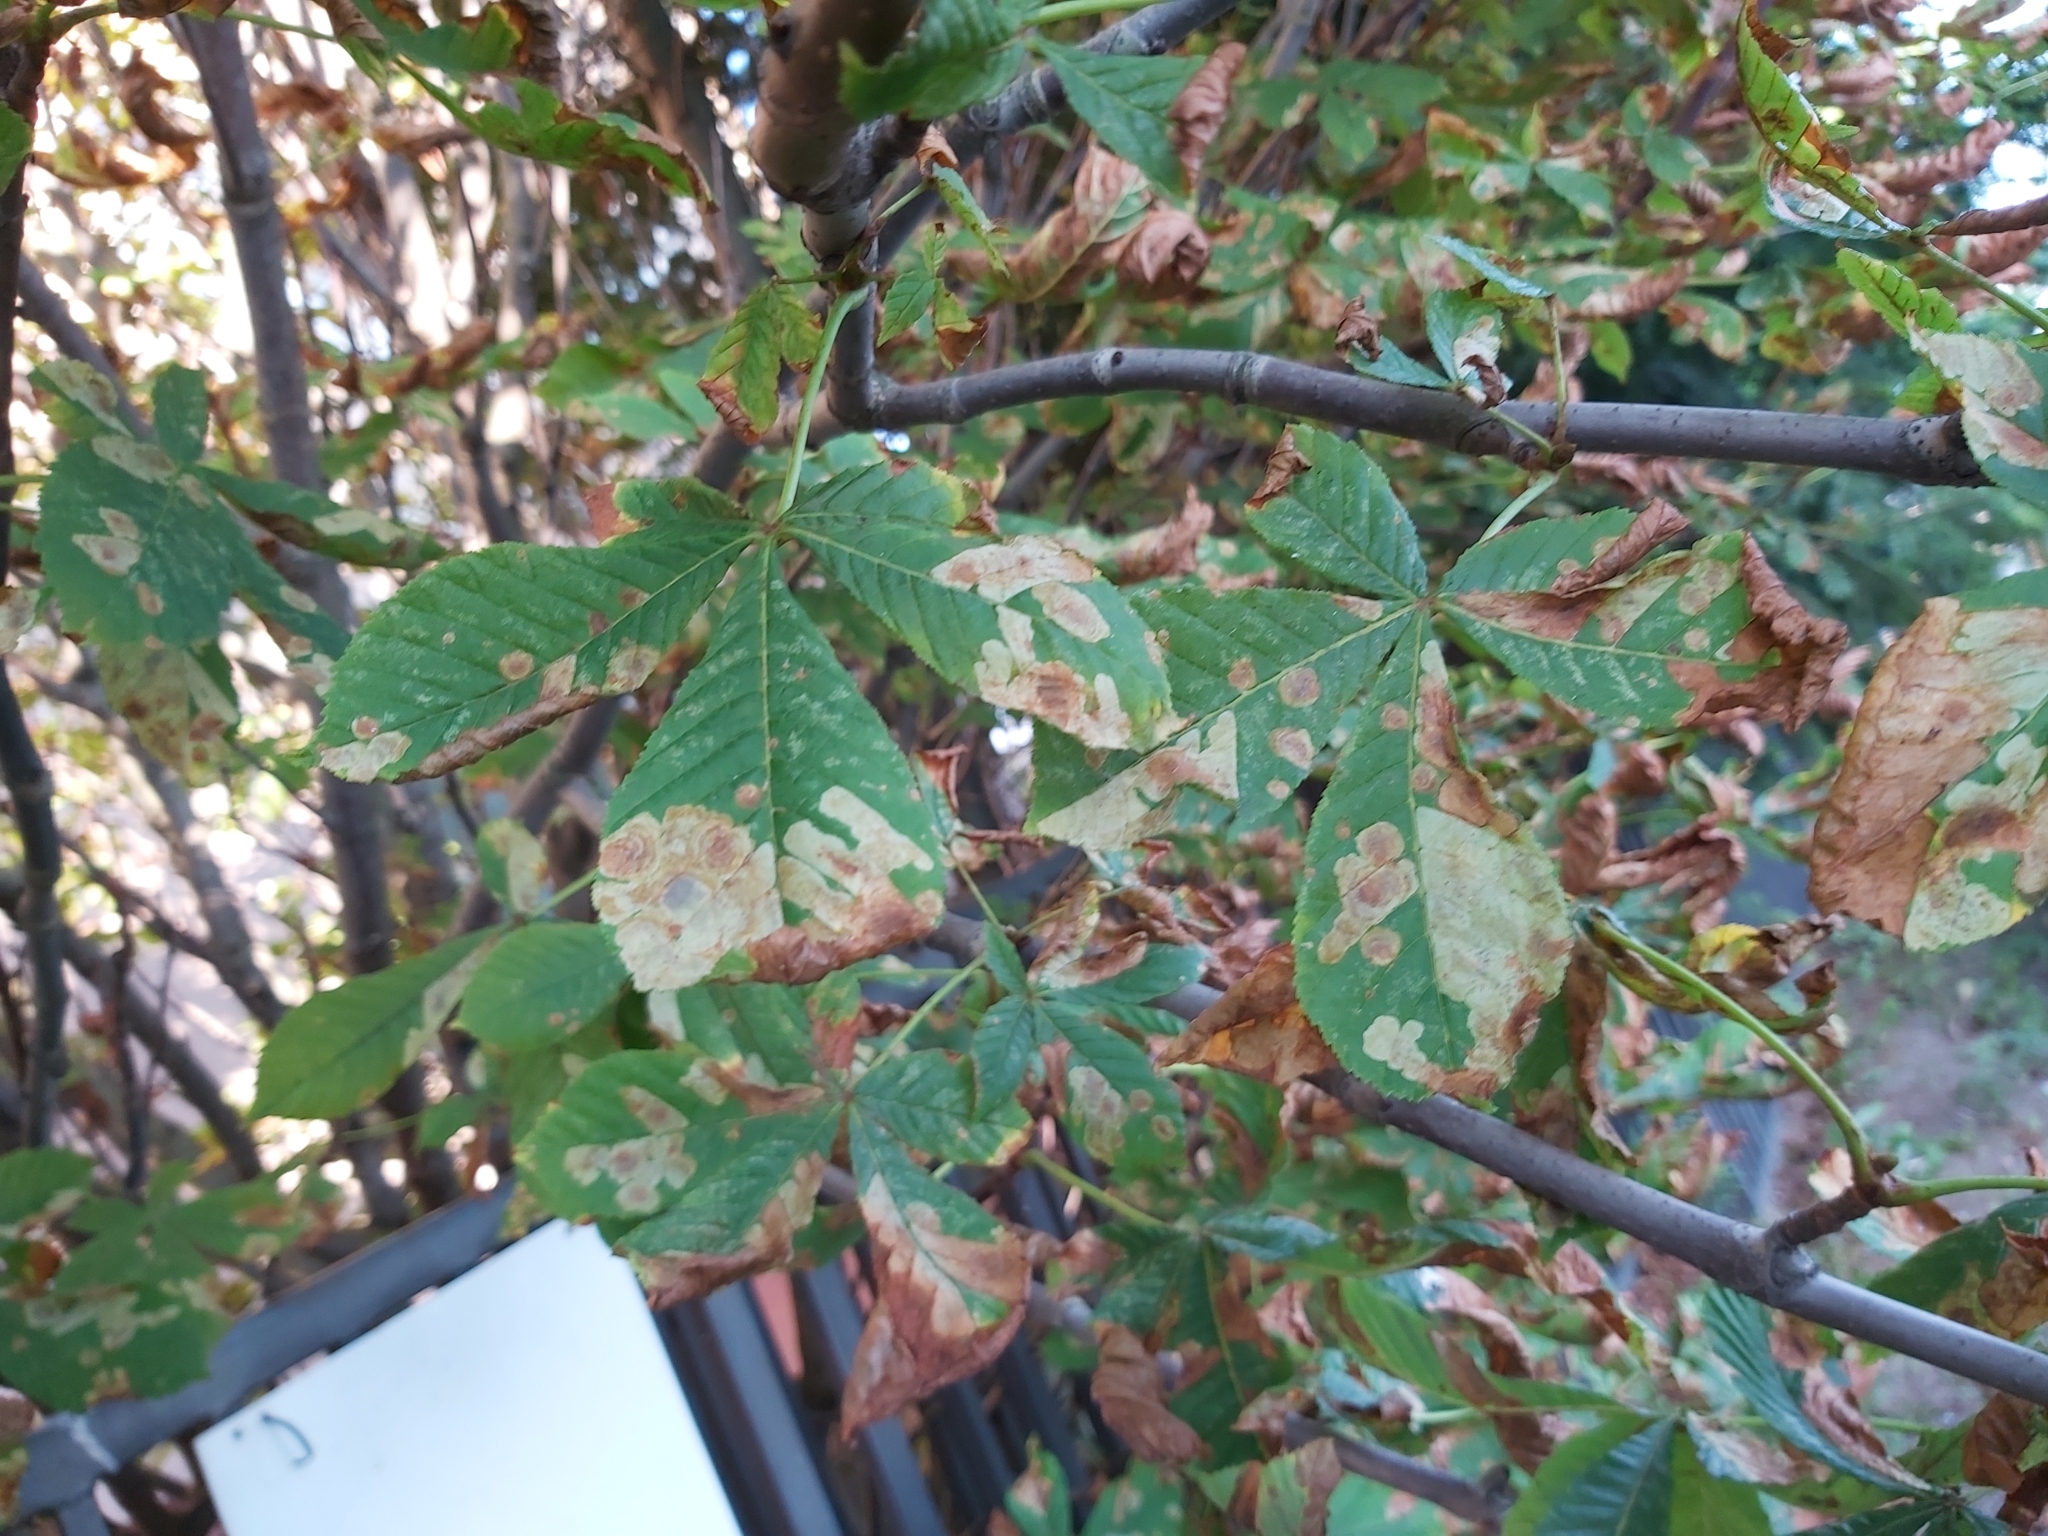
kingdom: Animalia
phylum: Arthropoda
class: Insecta
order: Lepidoptera
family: Gracillariidae
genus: Cameraria
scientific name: Cameraria ohridella
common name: Horse-chestnut leaf-miner
